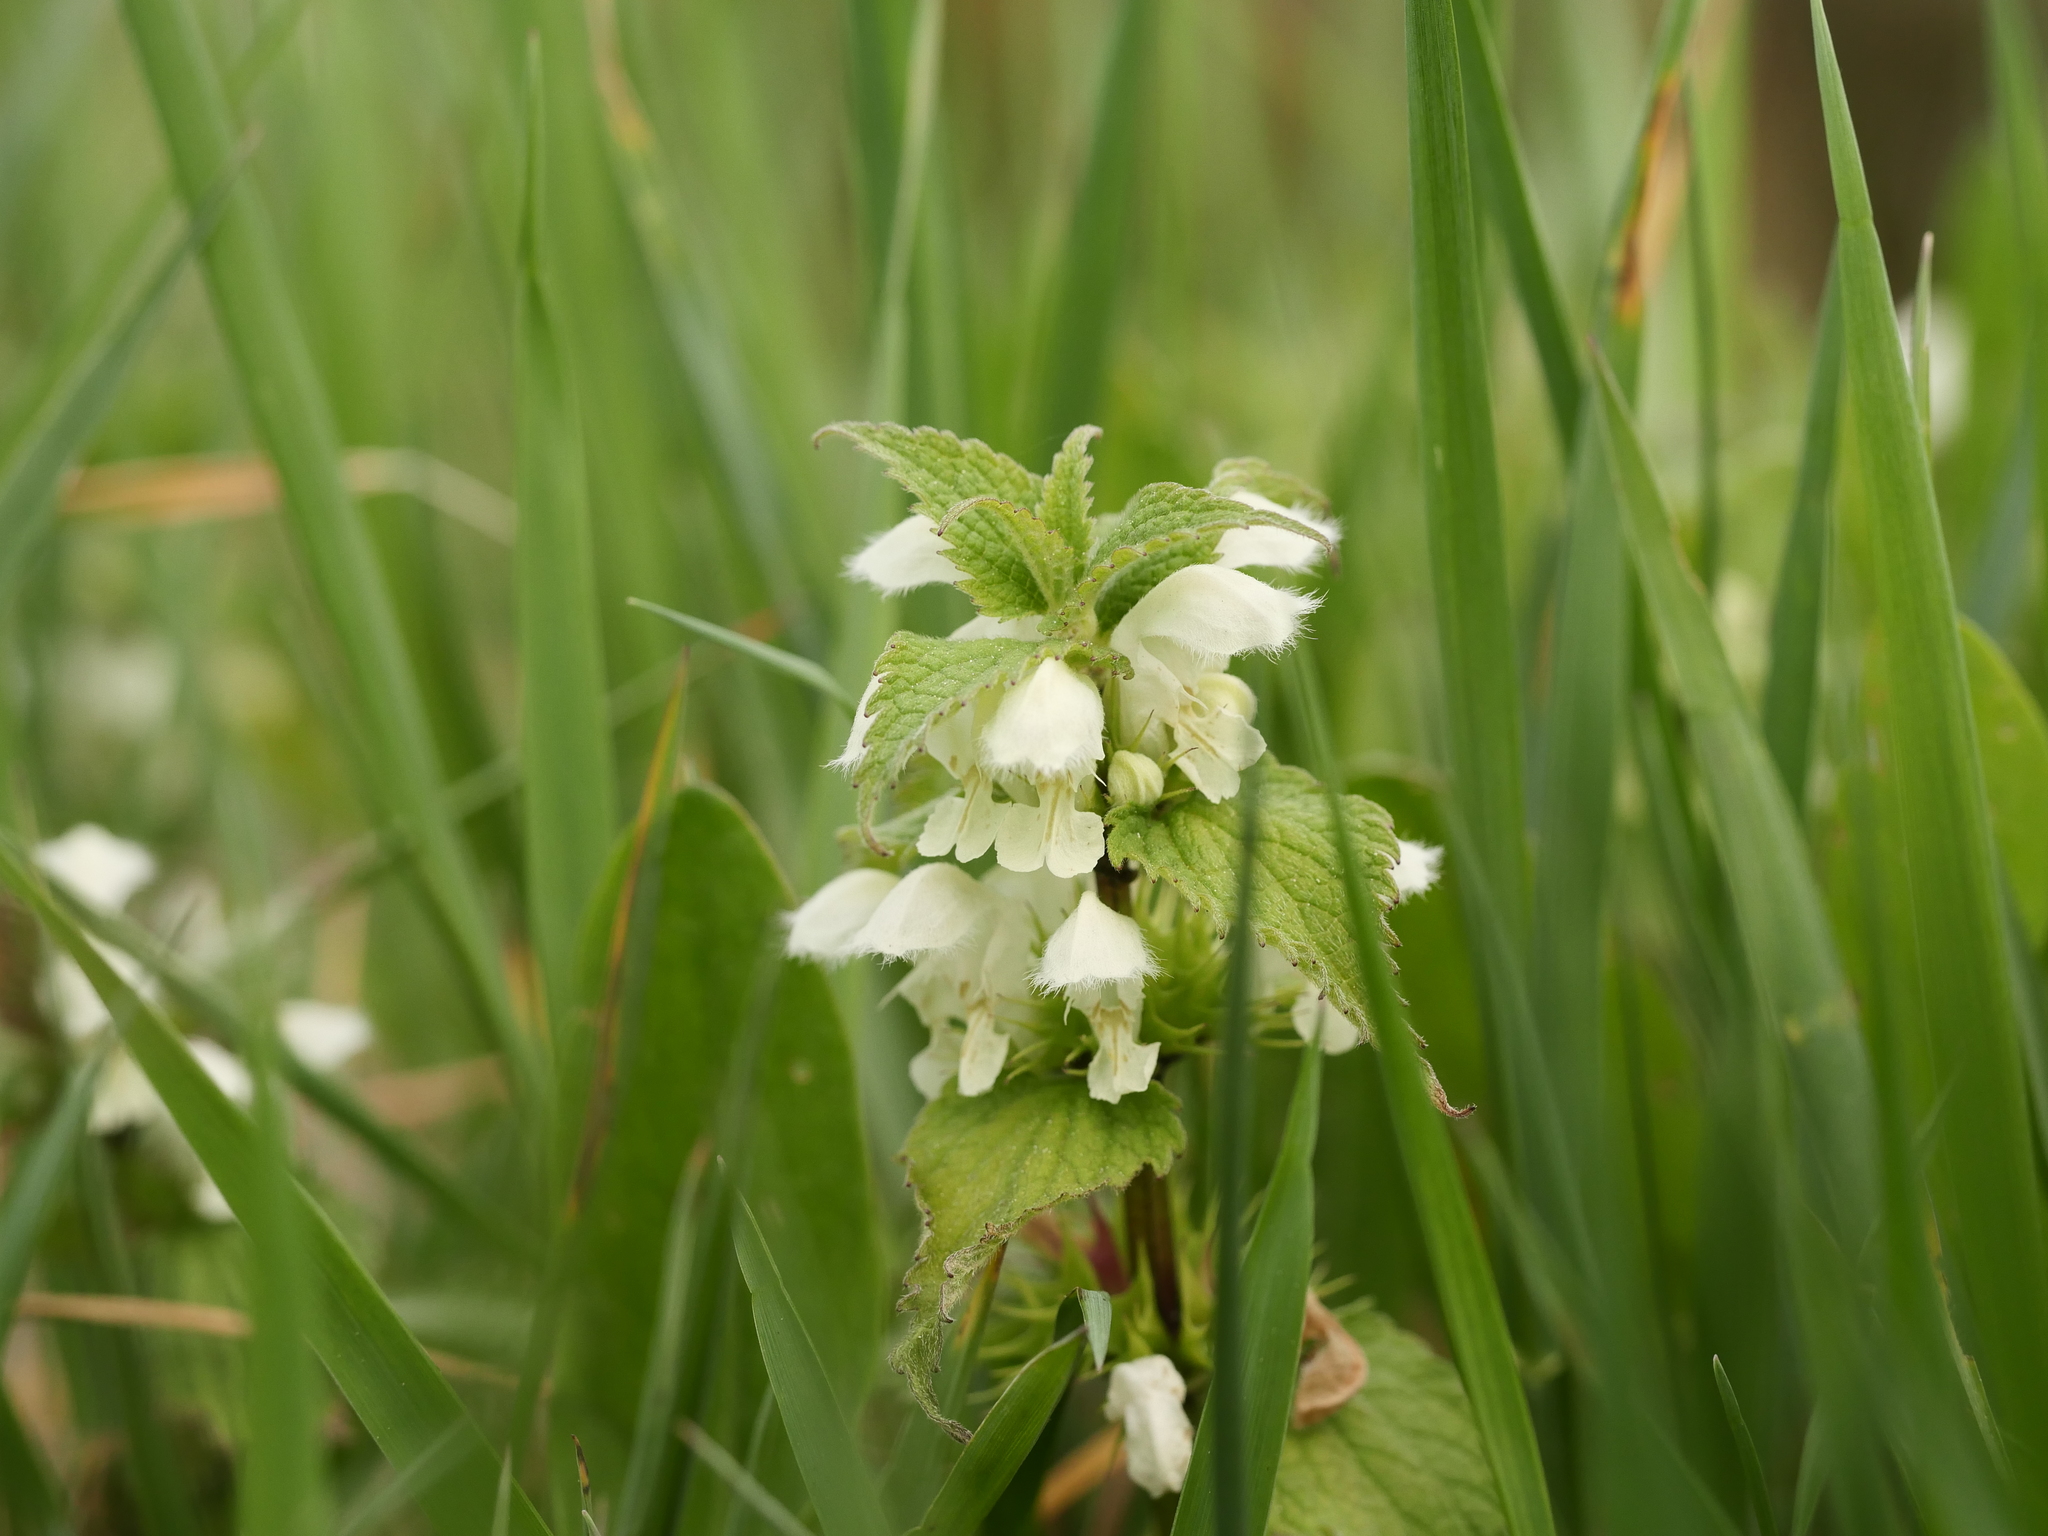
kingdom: Plantae
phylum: Tracheophyta
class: Magnoliopsida
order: Lamiales
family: Lamiaceae
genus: Lamium
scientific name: Lamium album
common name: White dead-nettle
